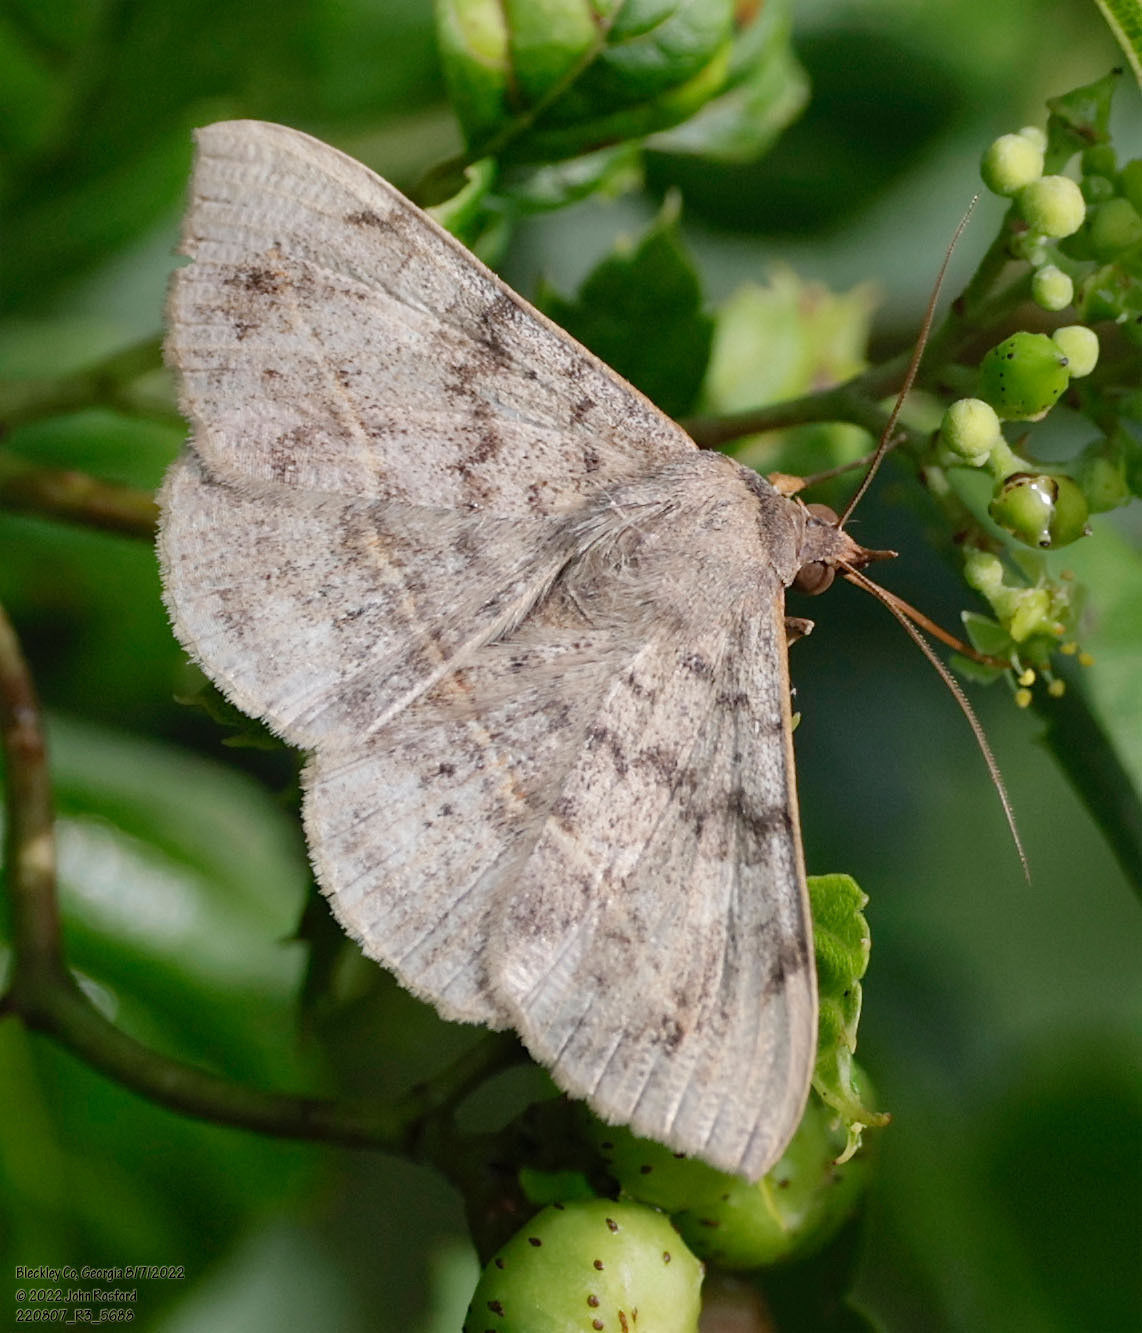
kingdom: Animalia
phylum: Arthropoda
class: Insecta
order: Lepidoptera
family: Erebidae
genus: Anticarsia
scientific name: Anticarsia gemmatalis
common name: Cutworm moth
